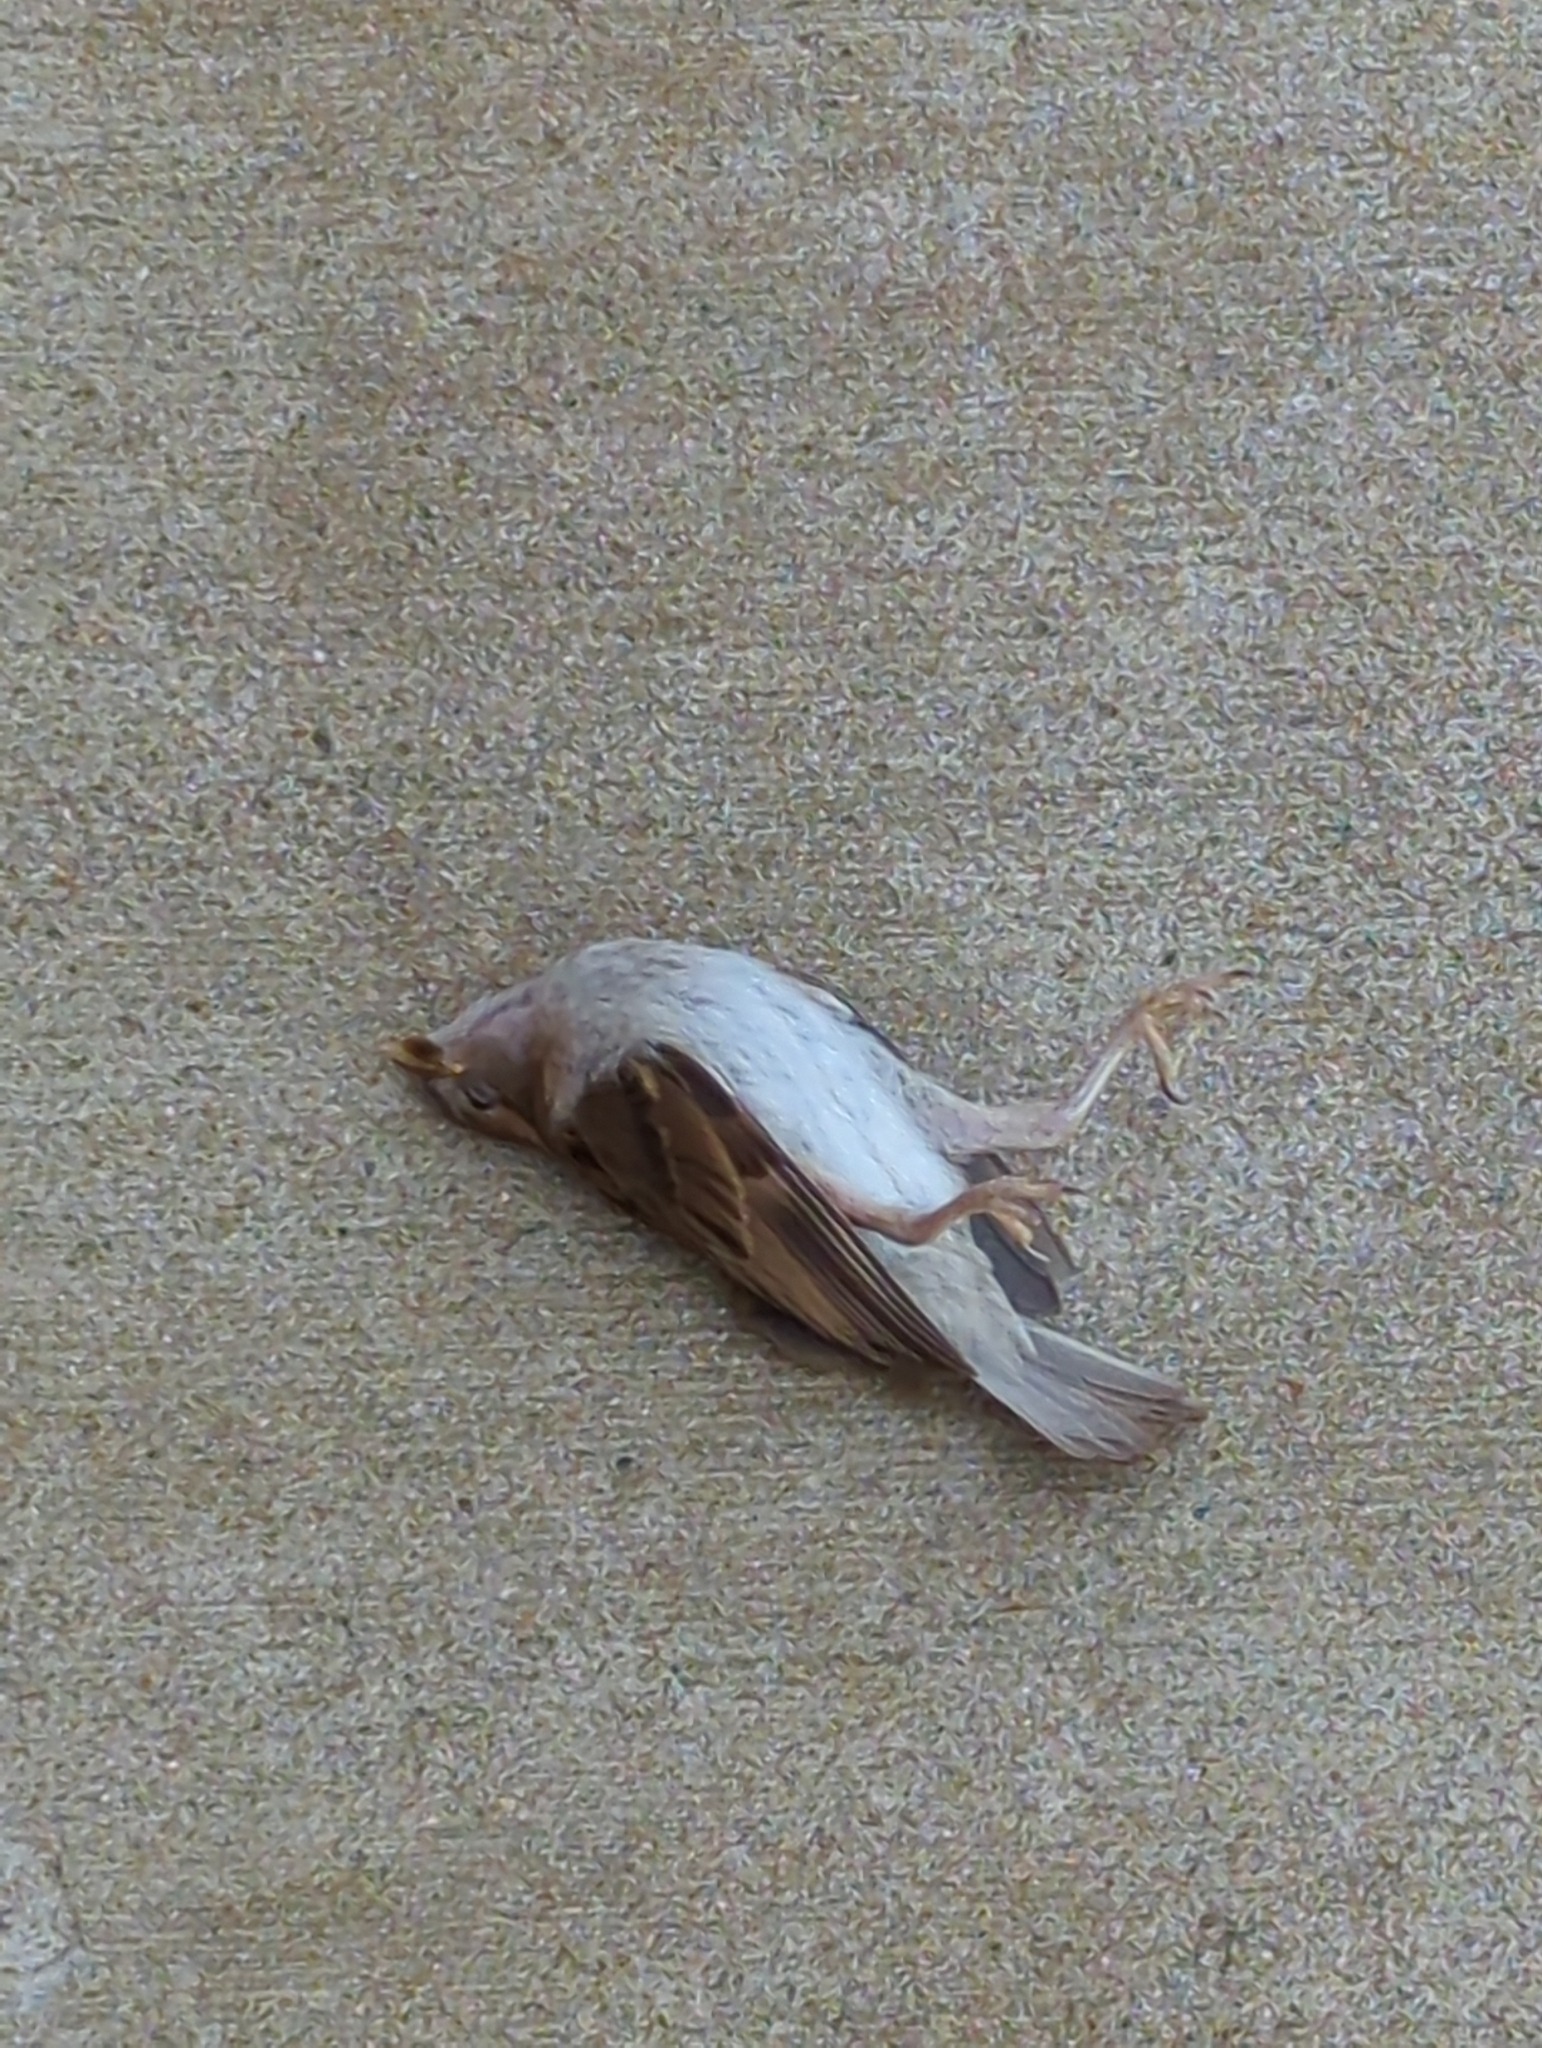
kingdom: Animalia
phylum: Chordata
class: Aves
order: Passeriformes
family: Passeridae
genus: Passer
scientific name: Passer domesticus
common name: House sparrow
